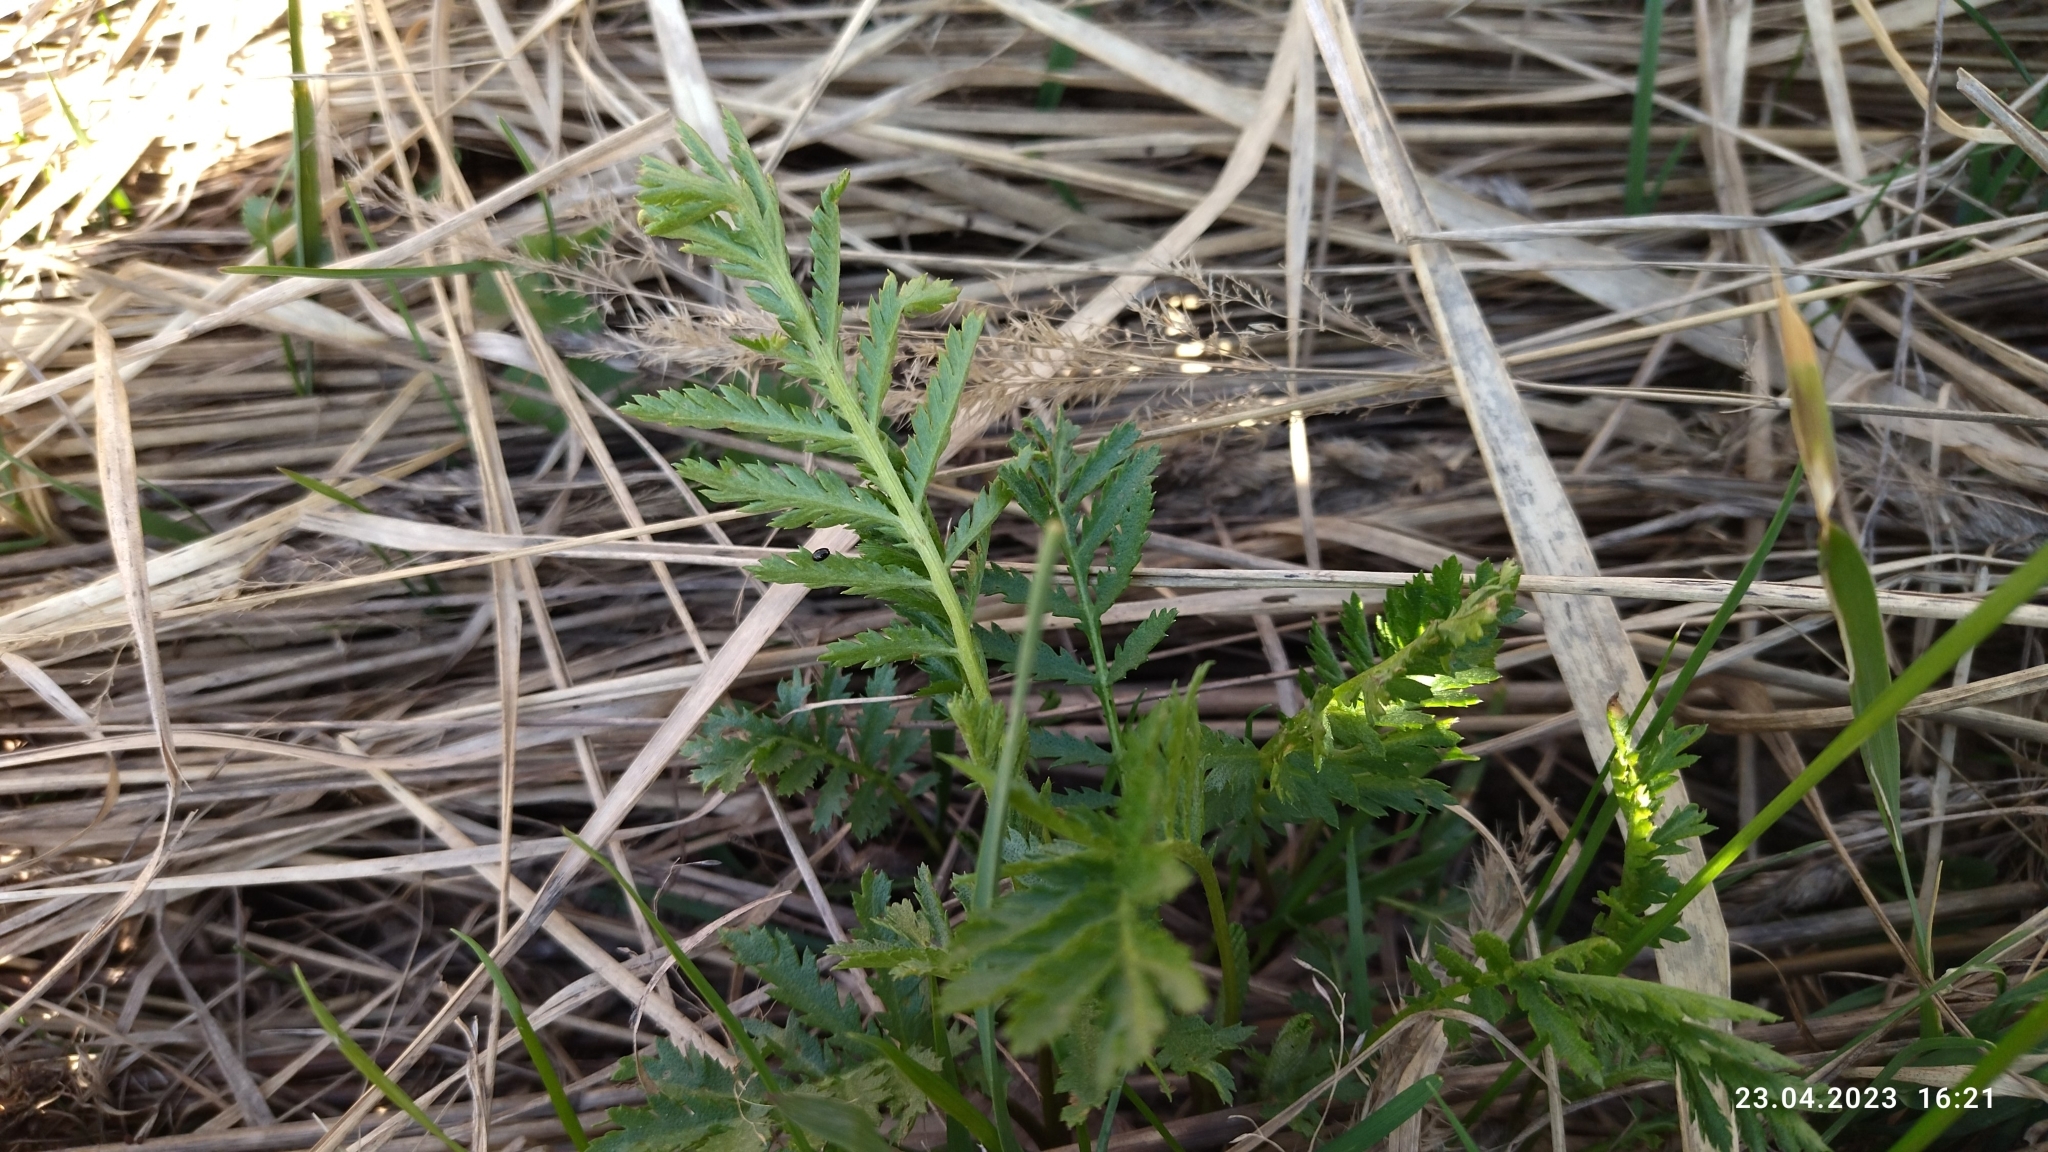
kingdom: Plantae
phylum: Tracheophyta
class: Magnoliopsida
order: Asterales
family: Asteraceae
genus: Tanacetum
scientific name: Tanacetum vulgare
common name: Common tansy
